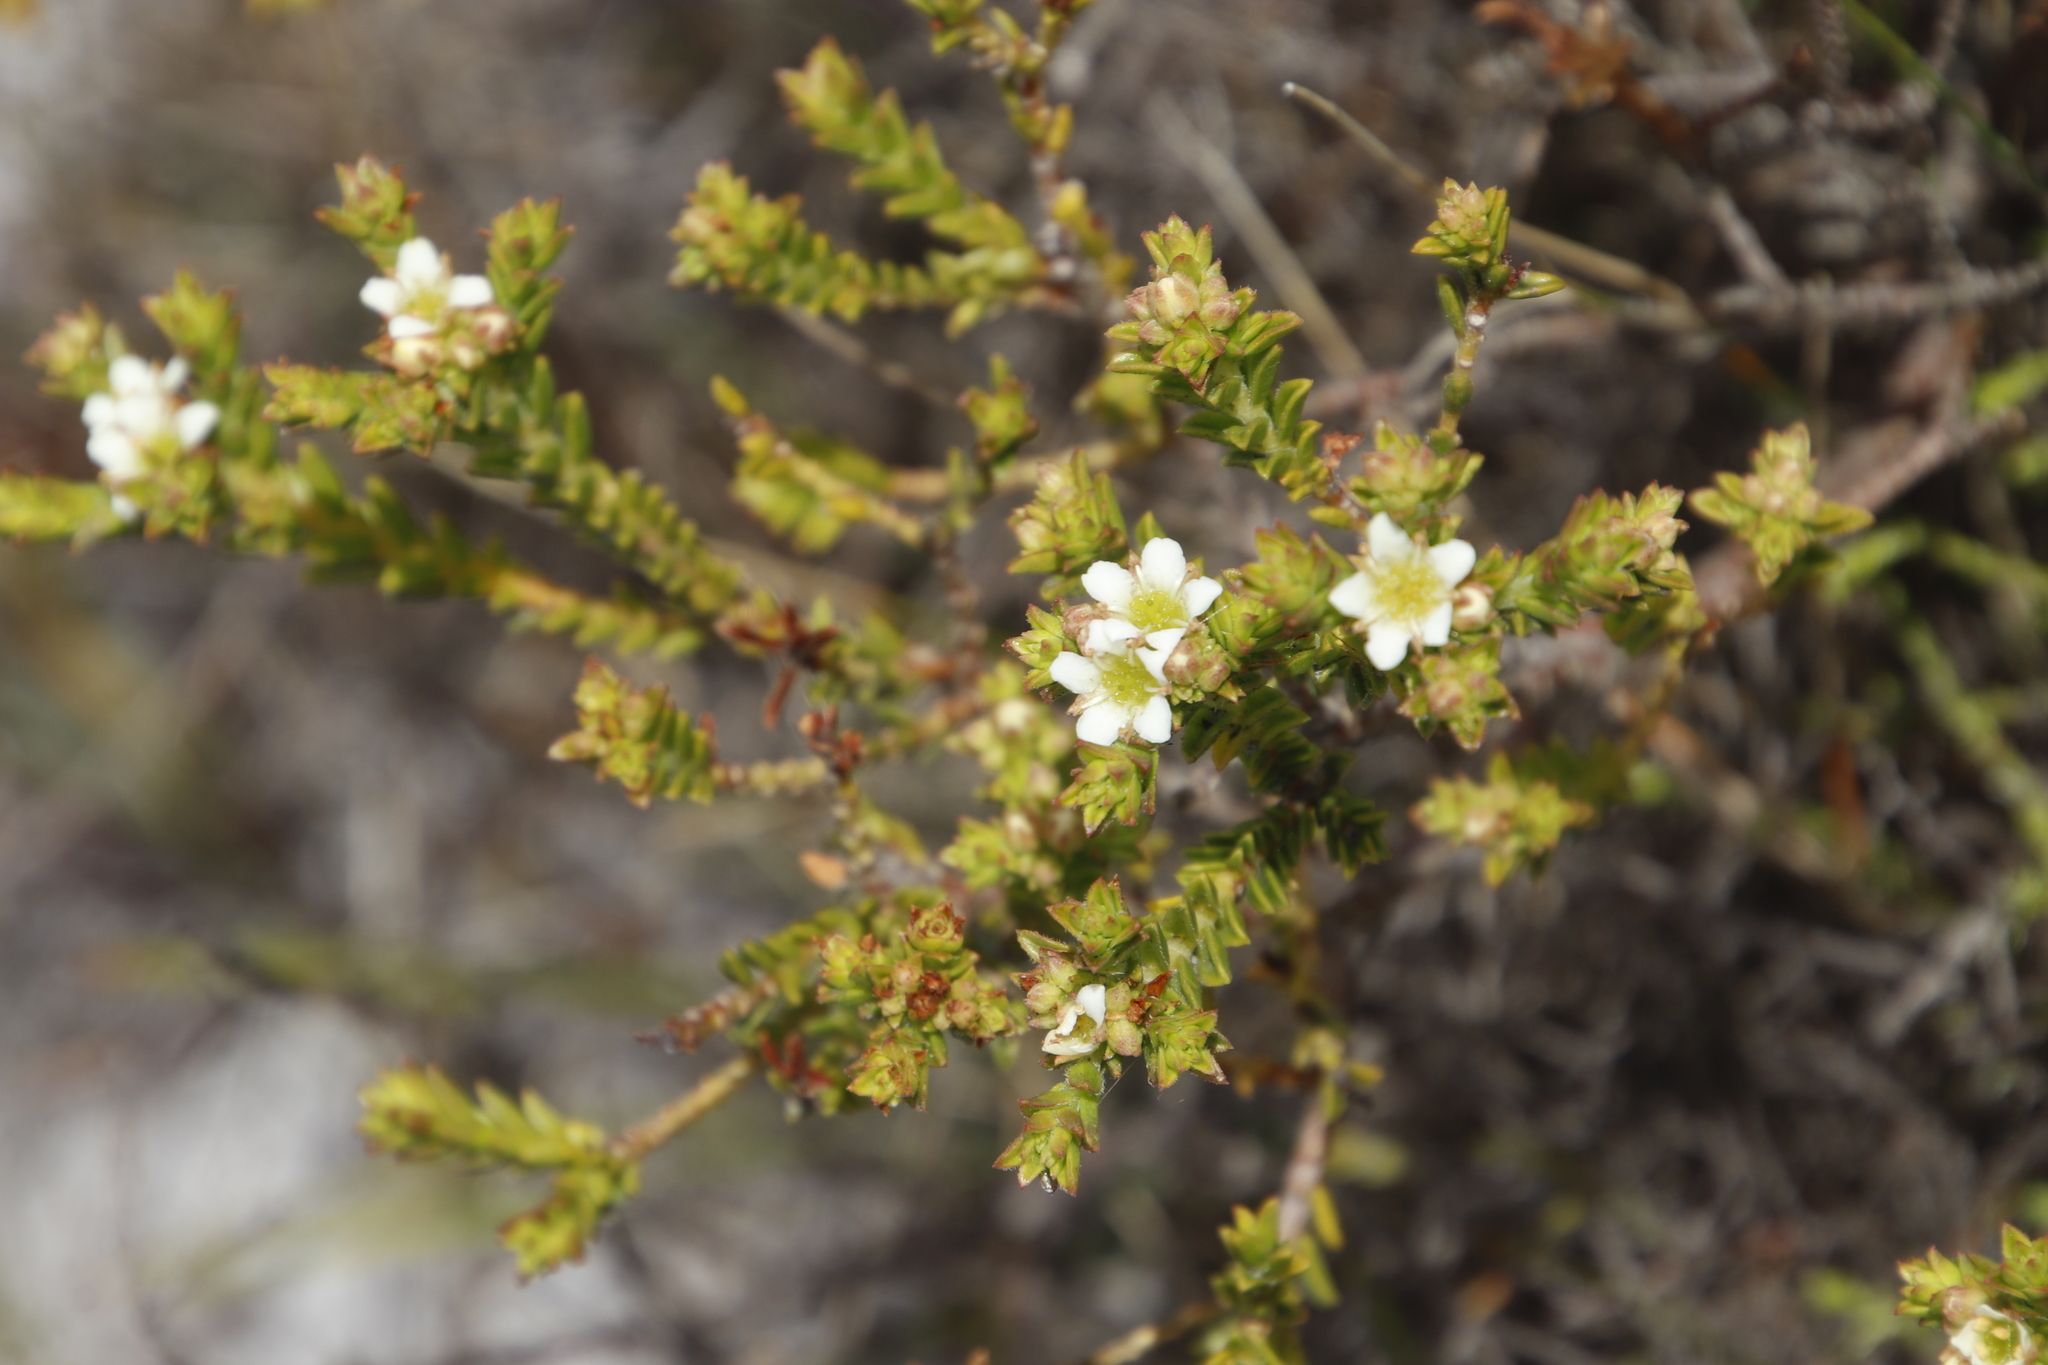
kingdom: Plantae
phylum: Tracheophyta
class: Magnoliopsida
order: Sapindales
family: Rutaceae
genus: Diosma
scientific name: Diosma oppositifolia
